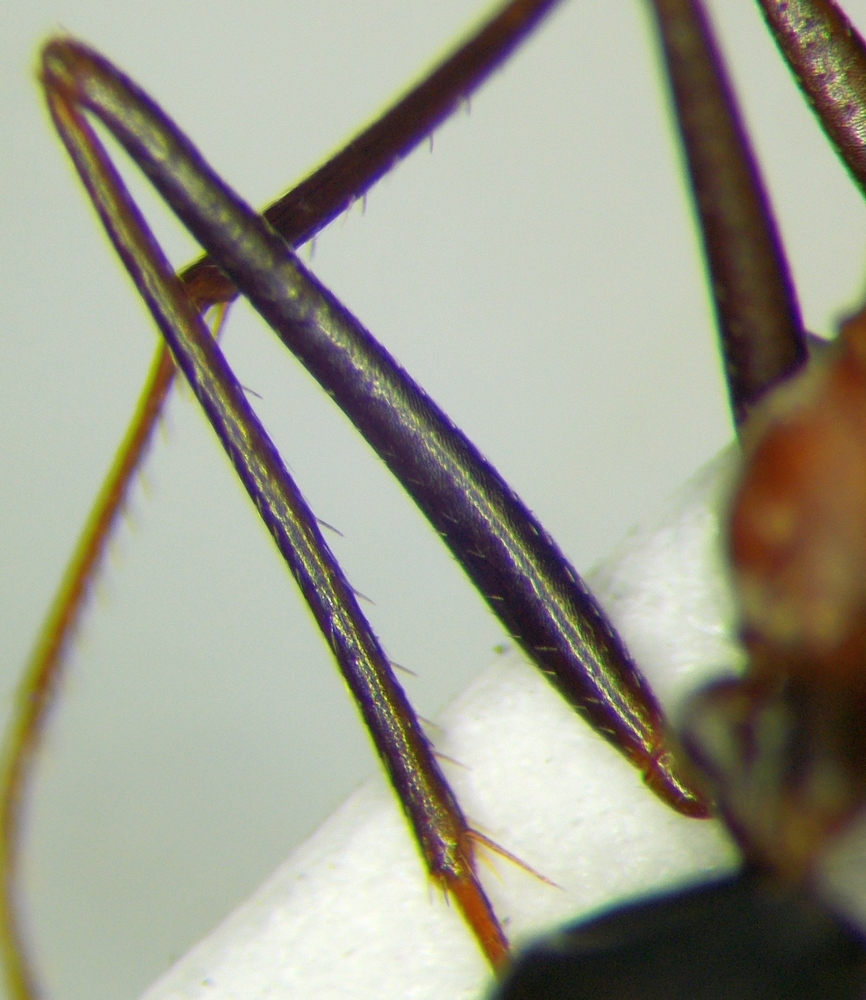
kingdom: Animalia
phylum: Arthropoda
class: Insecta
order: Hymenoptera
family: Formicidae
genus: Cataglyphis
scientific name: Cataglyphis aphrodite
